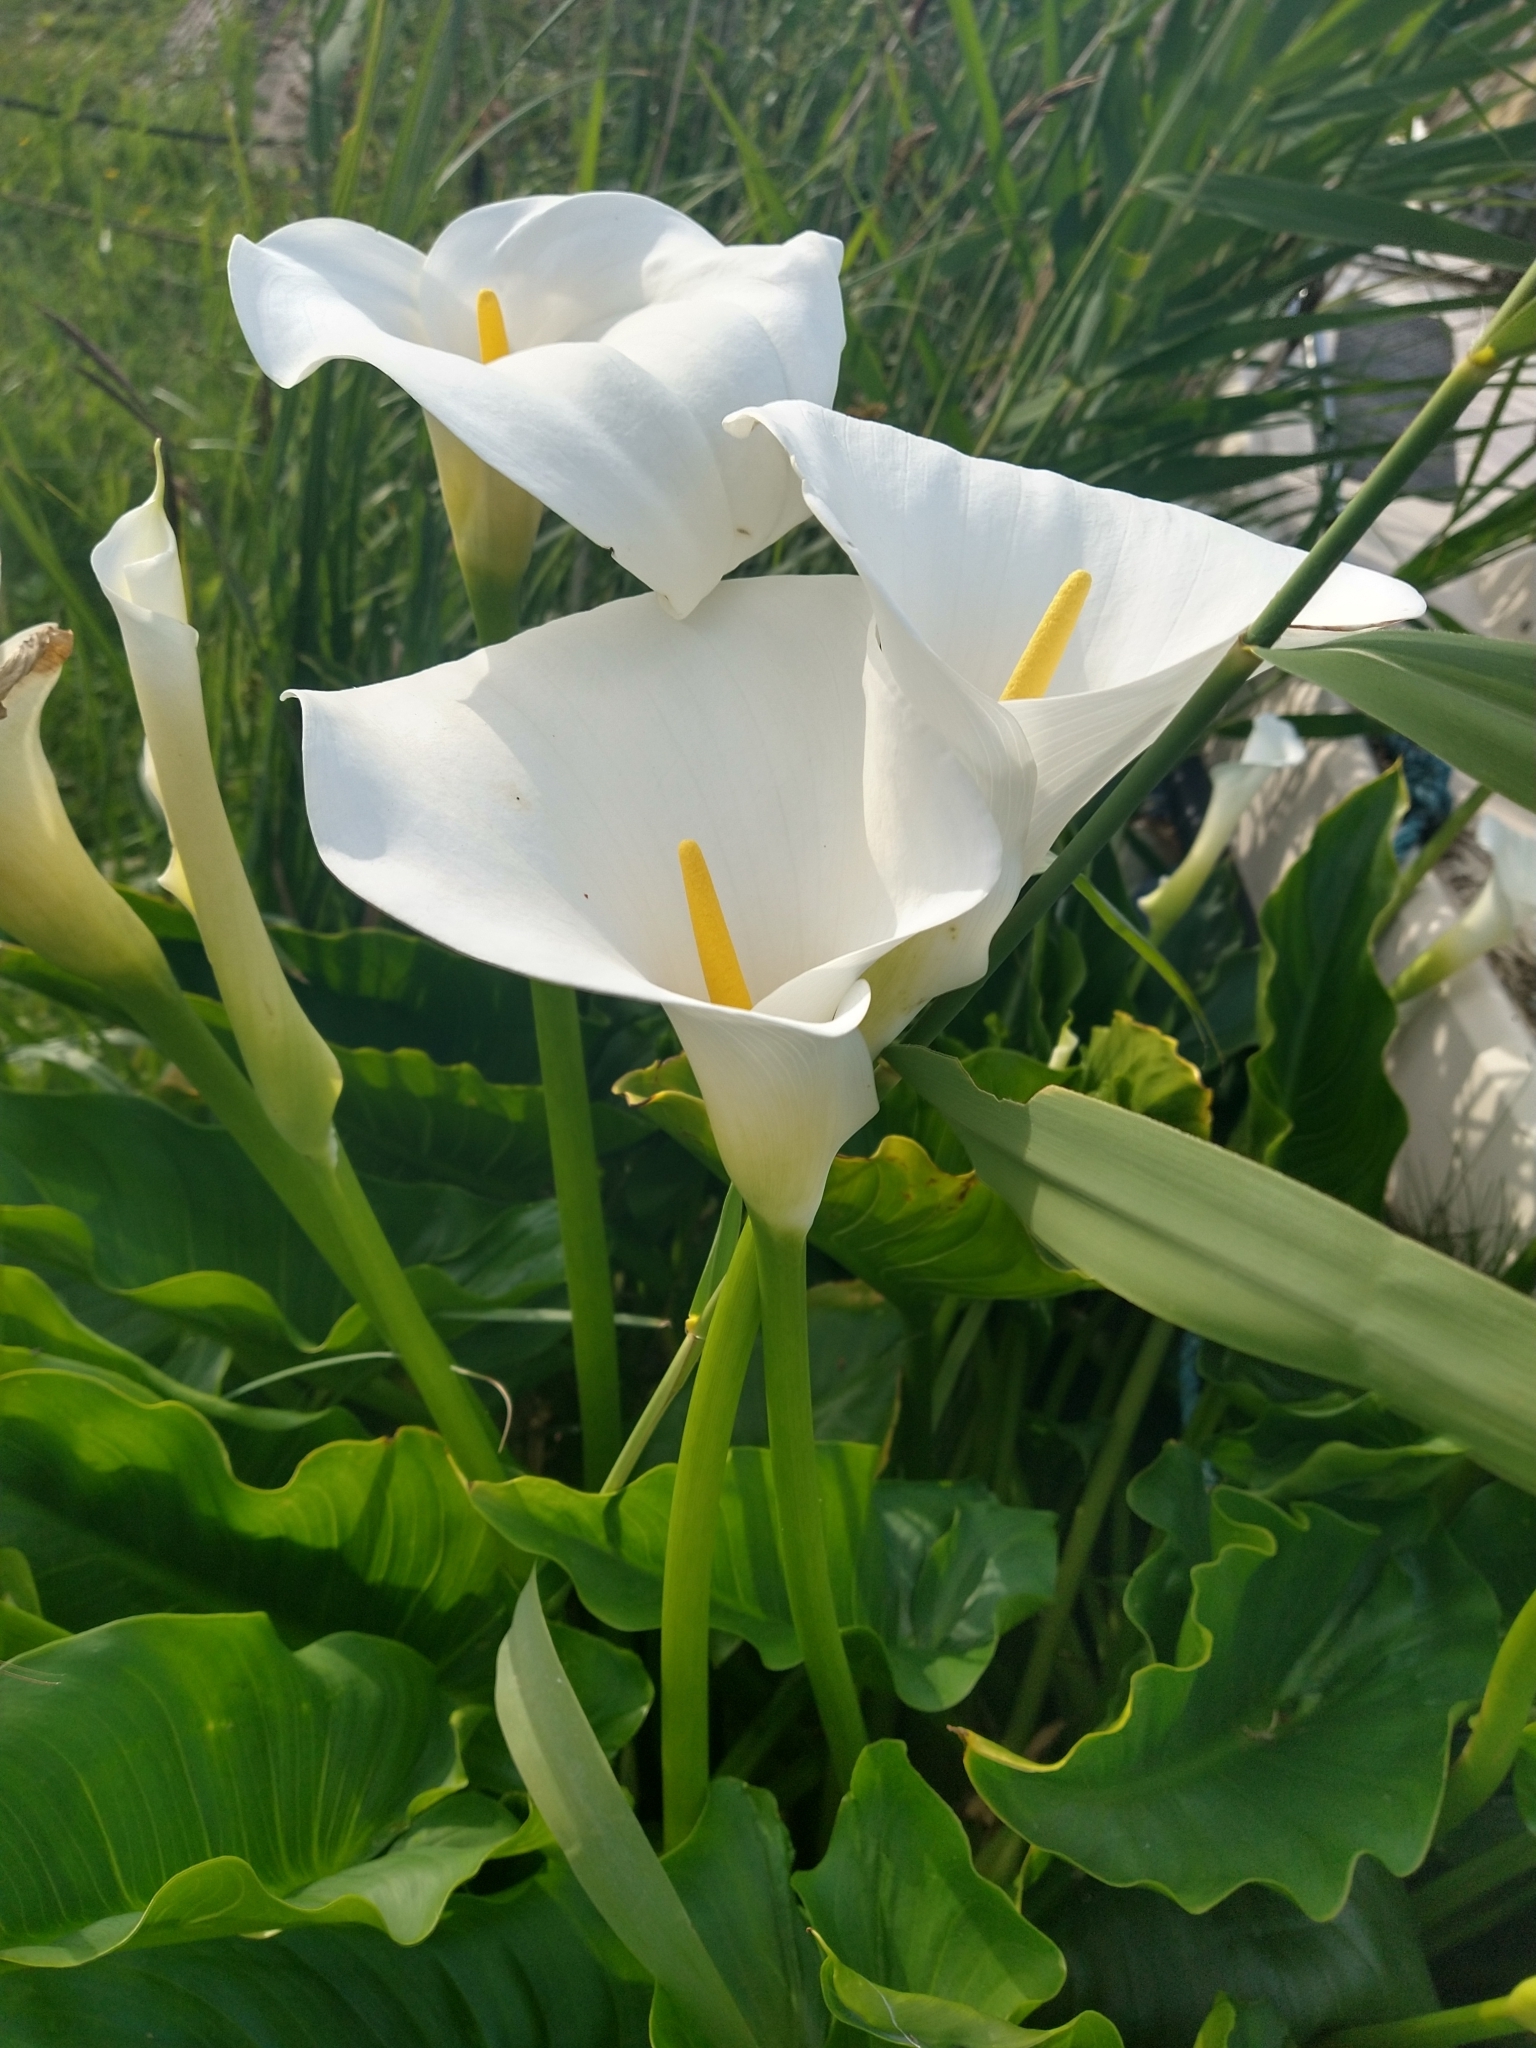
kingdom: Plantae
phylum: Tracheophyta
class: Liliopsida
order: Alismatales
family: Araceae
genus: Zantedeschia
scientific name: Zantedeschia aethiopica
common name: Altar-lily
